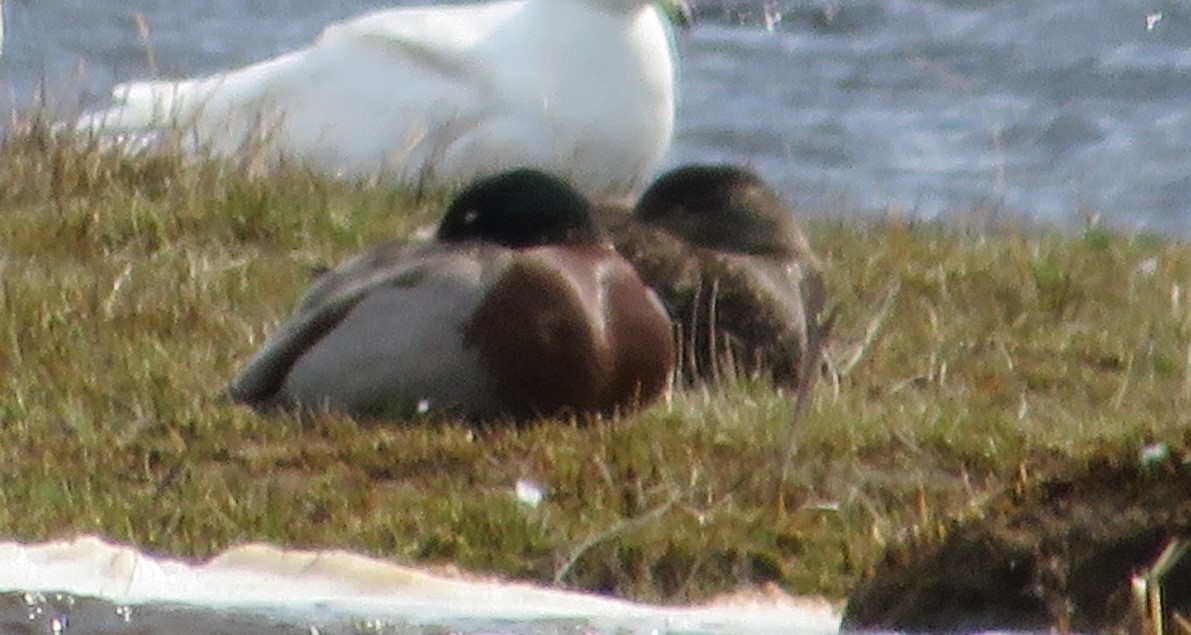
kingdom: Animalia
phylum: Chordata
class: Aves
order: Anseriformes
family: Anatidae
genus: Anas
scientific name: Anas platyrhynchos
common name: Mallard
